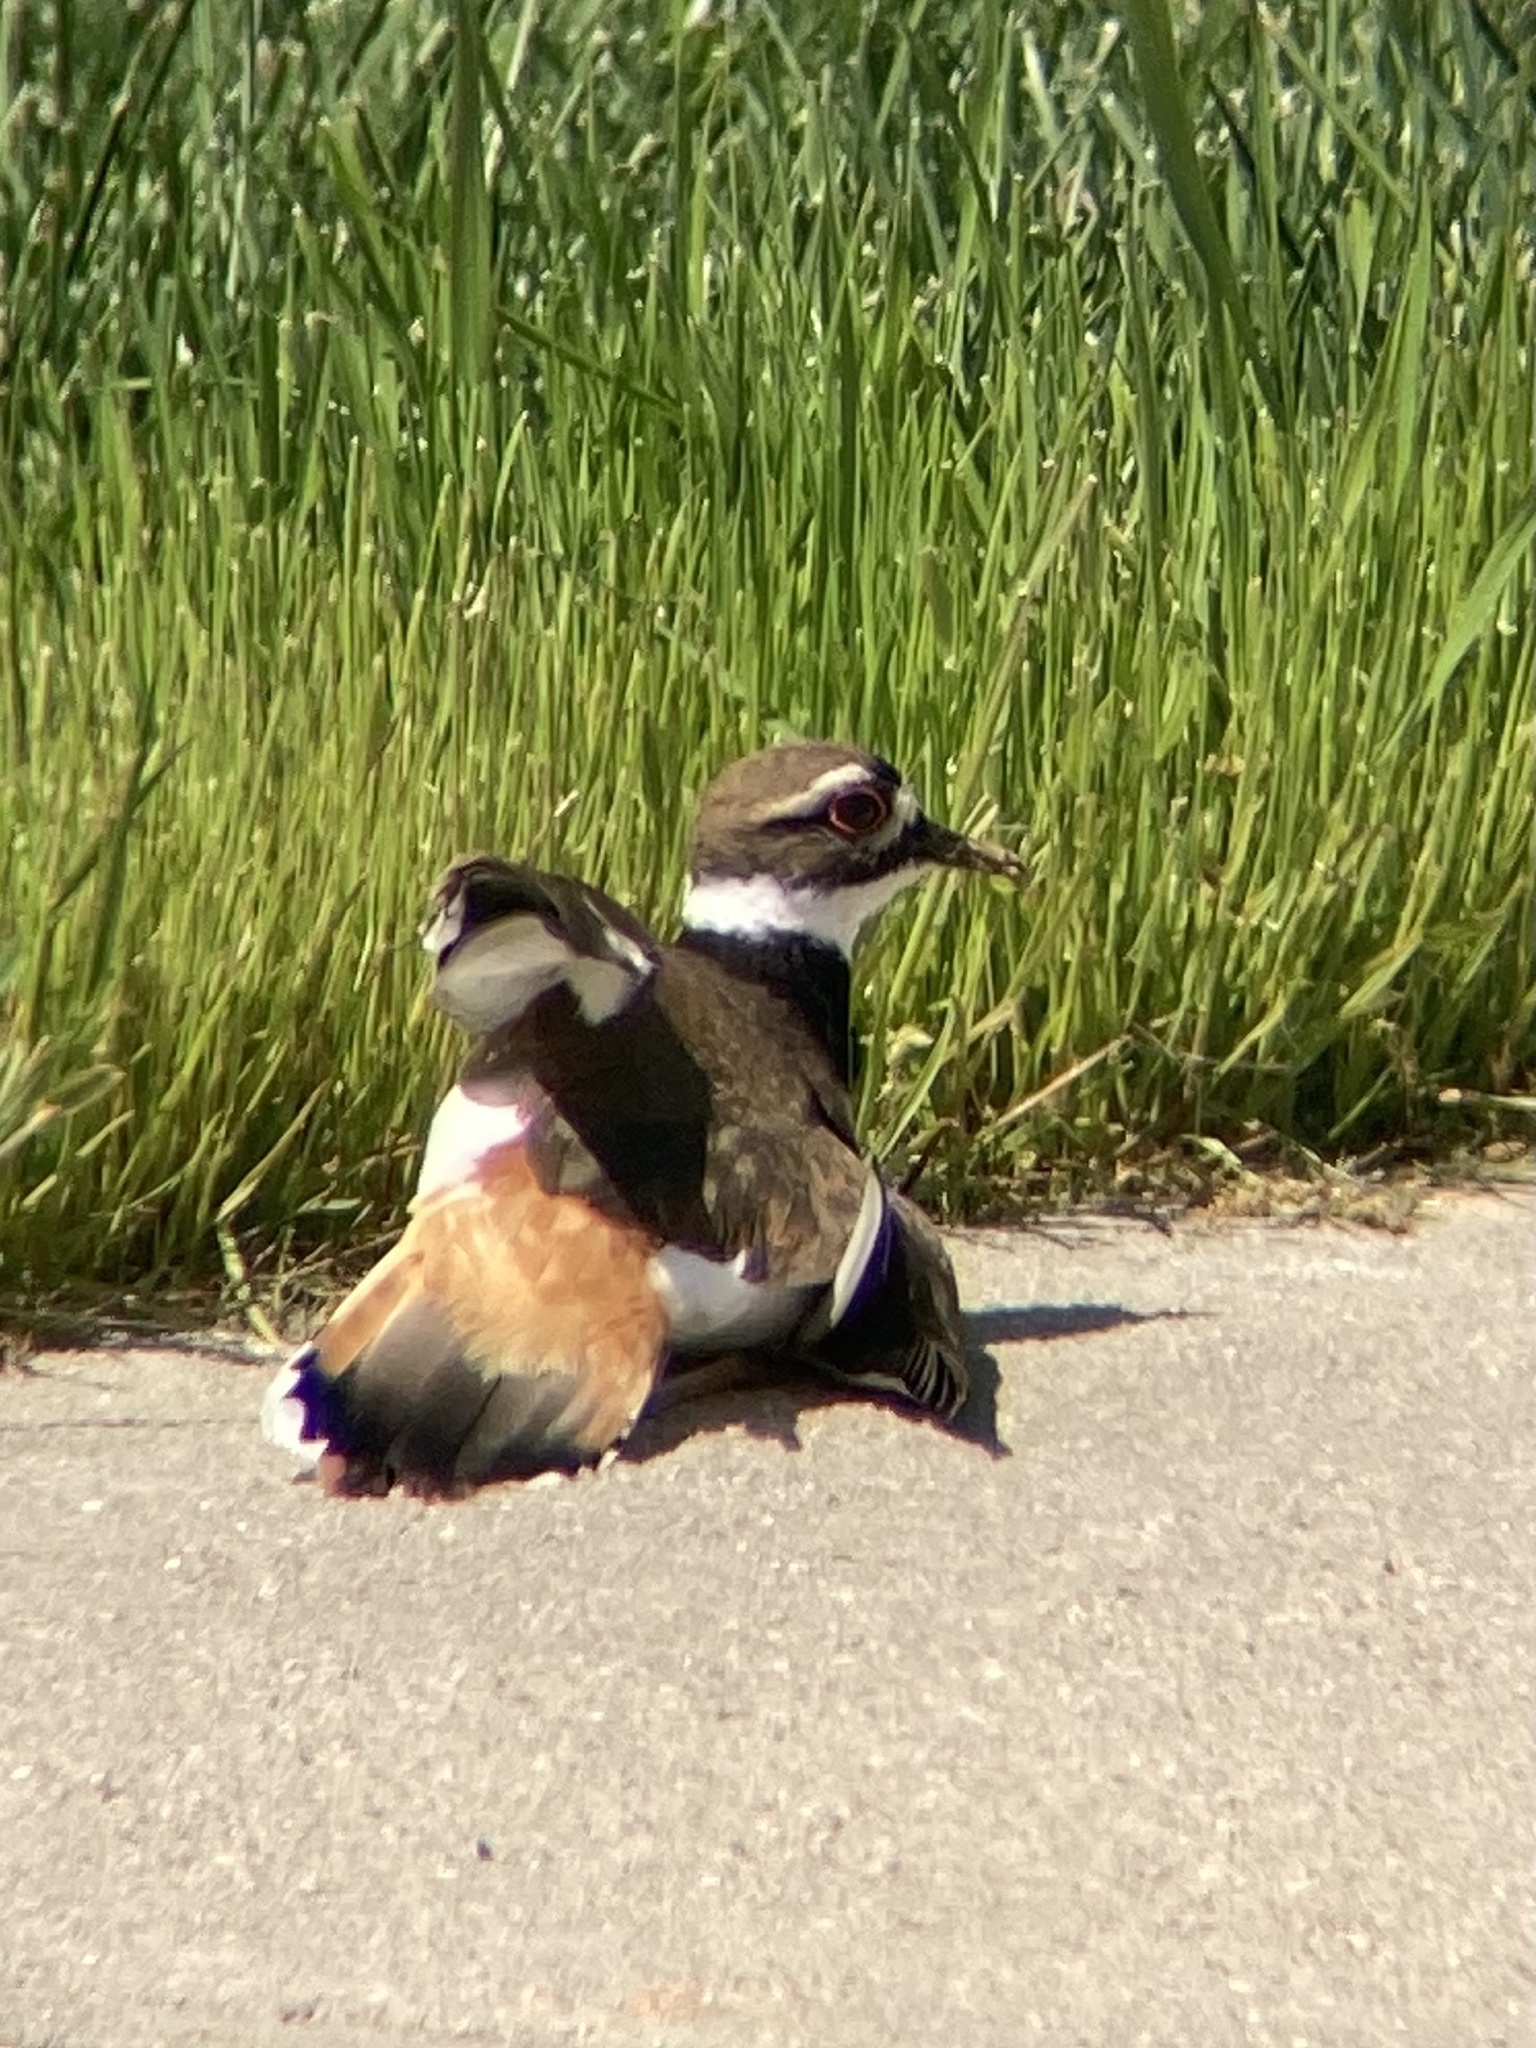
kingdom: Animalia
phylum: Chordata
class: Aves
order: Charadriiformes
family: Charadriidae
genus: Charadrius
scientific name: Charadrius vociferus
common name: Killdeer
